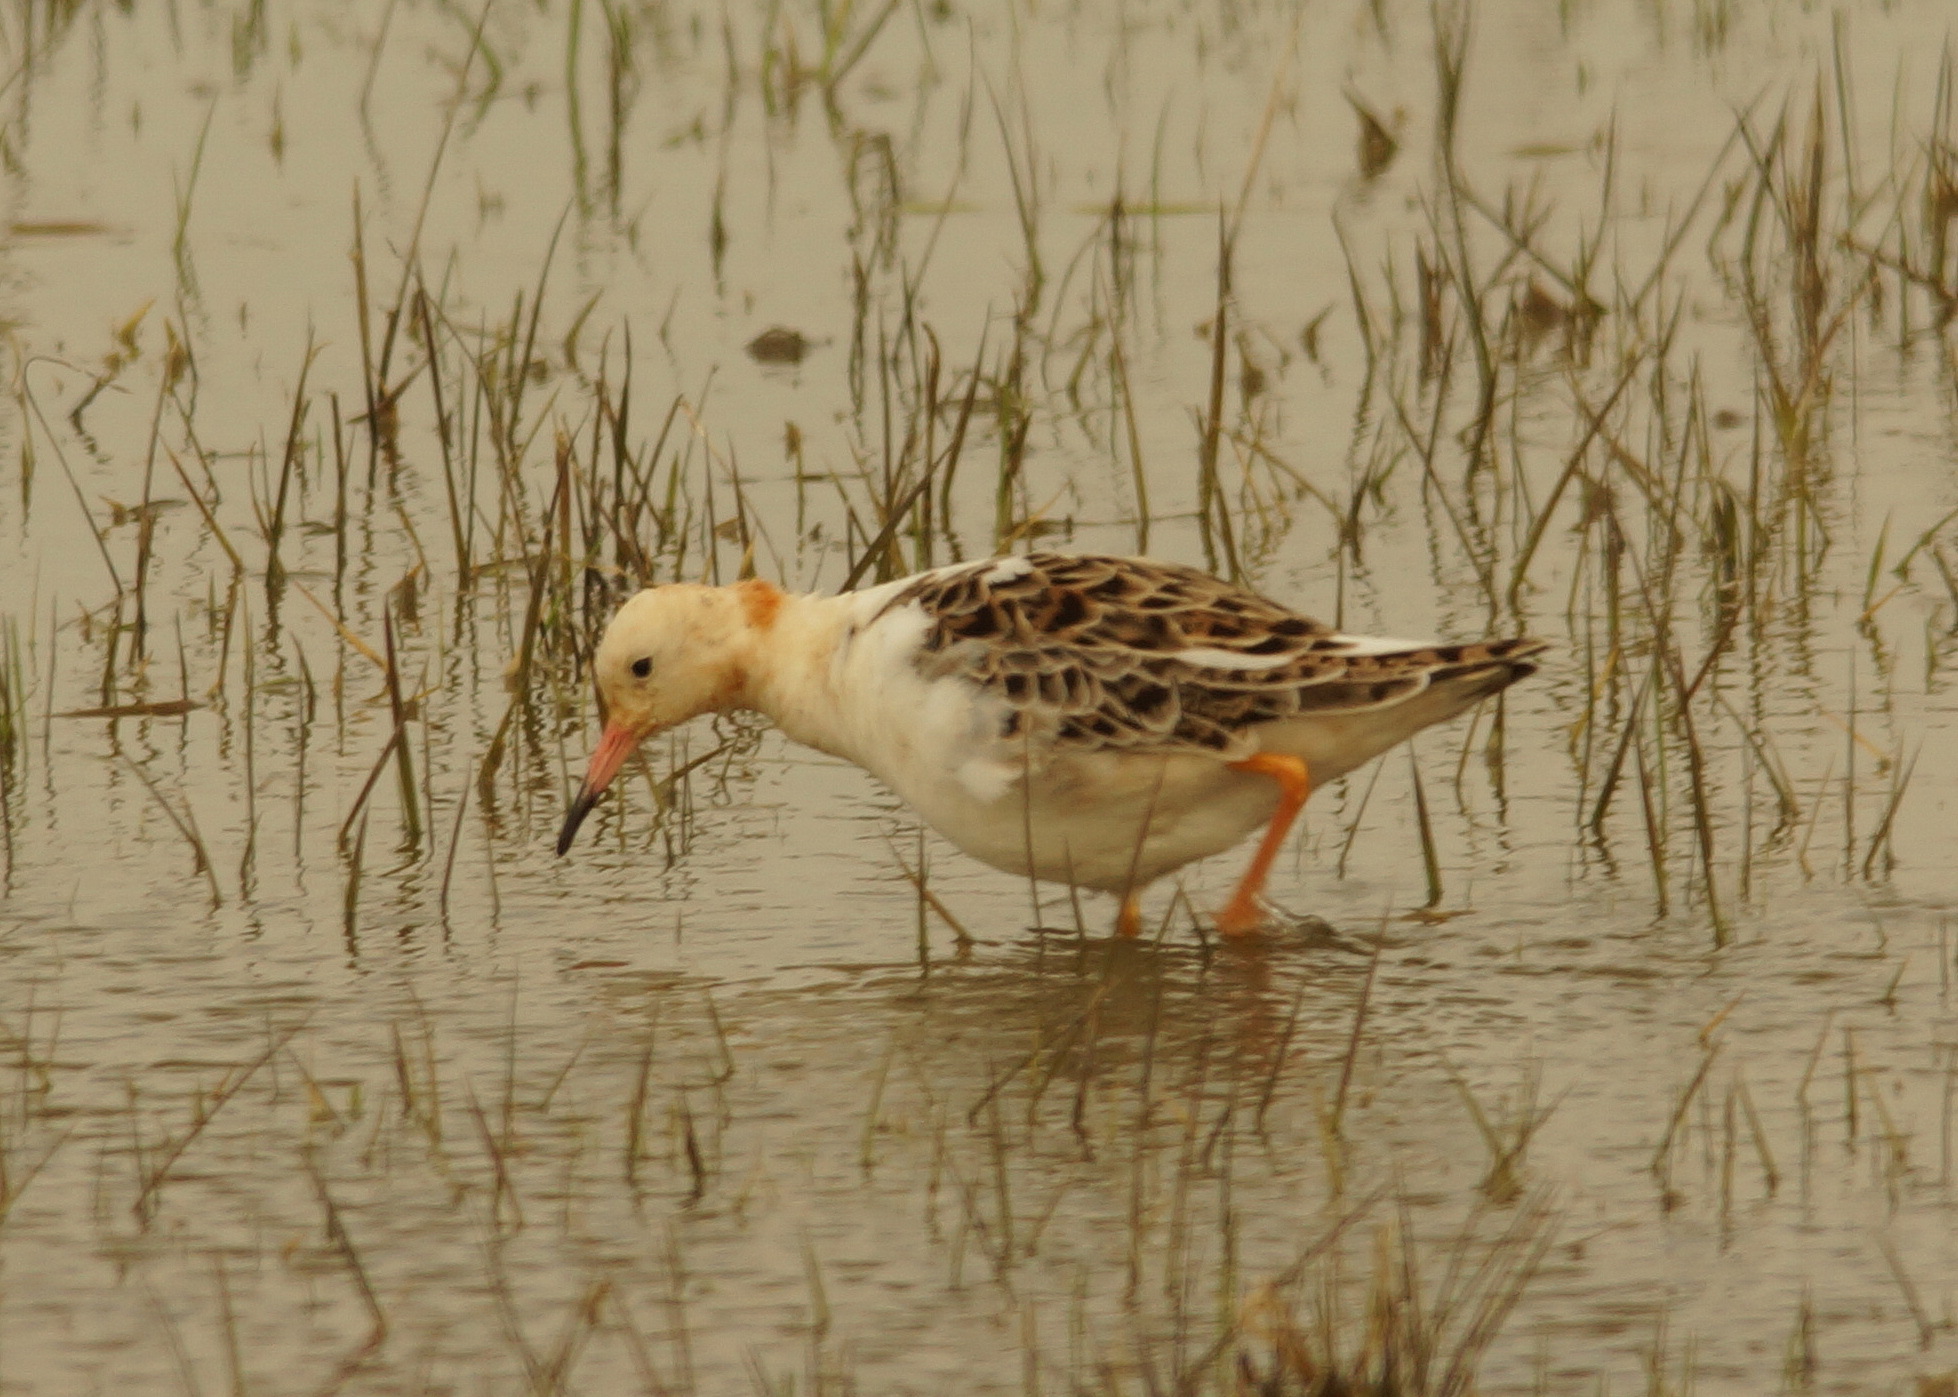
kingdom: Animalia
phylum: Chordata
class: Aves
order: Charadriiformes
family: Scolopacidae
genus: Calidris
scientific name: Calidris pugnax
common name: Ruff
